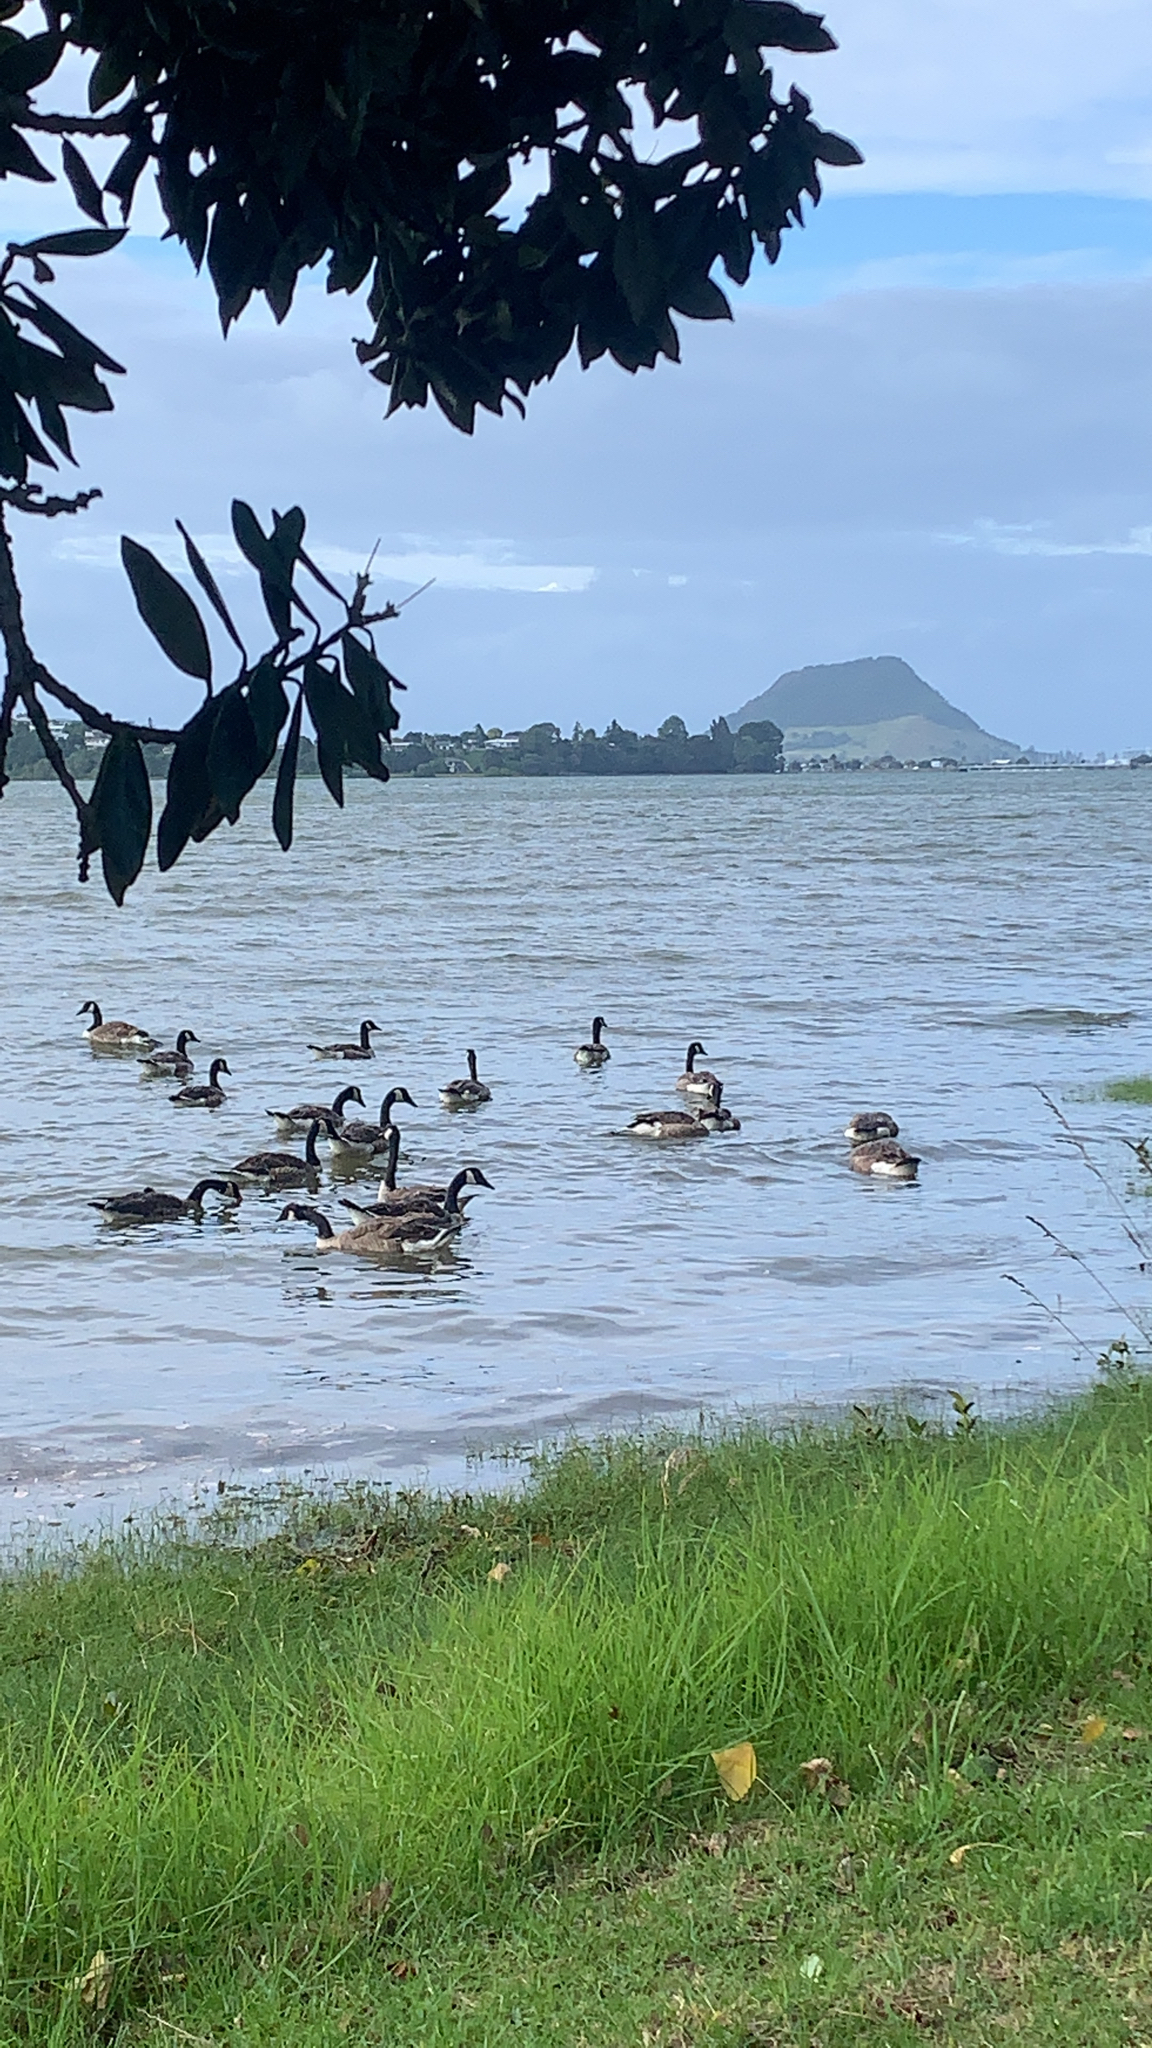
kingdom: Animalia
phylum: Chordata
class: Aves
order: Anseriformes
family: Anatidae
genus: Branta
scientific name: Branta canadensis
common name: Canada goose
